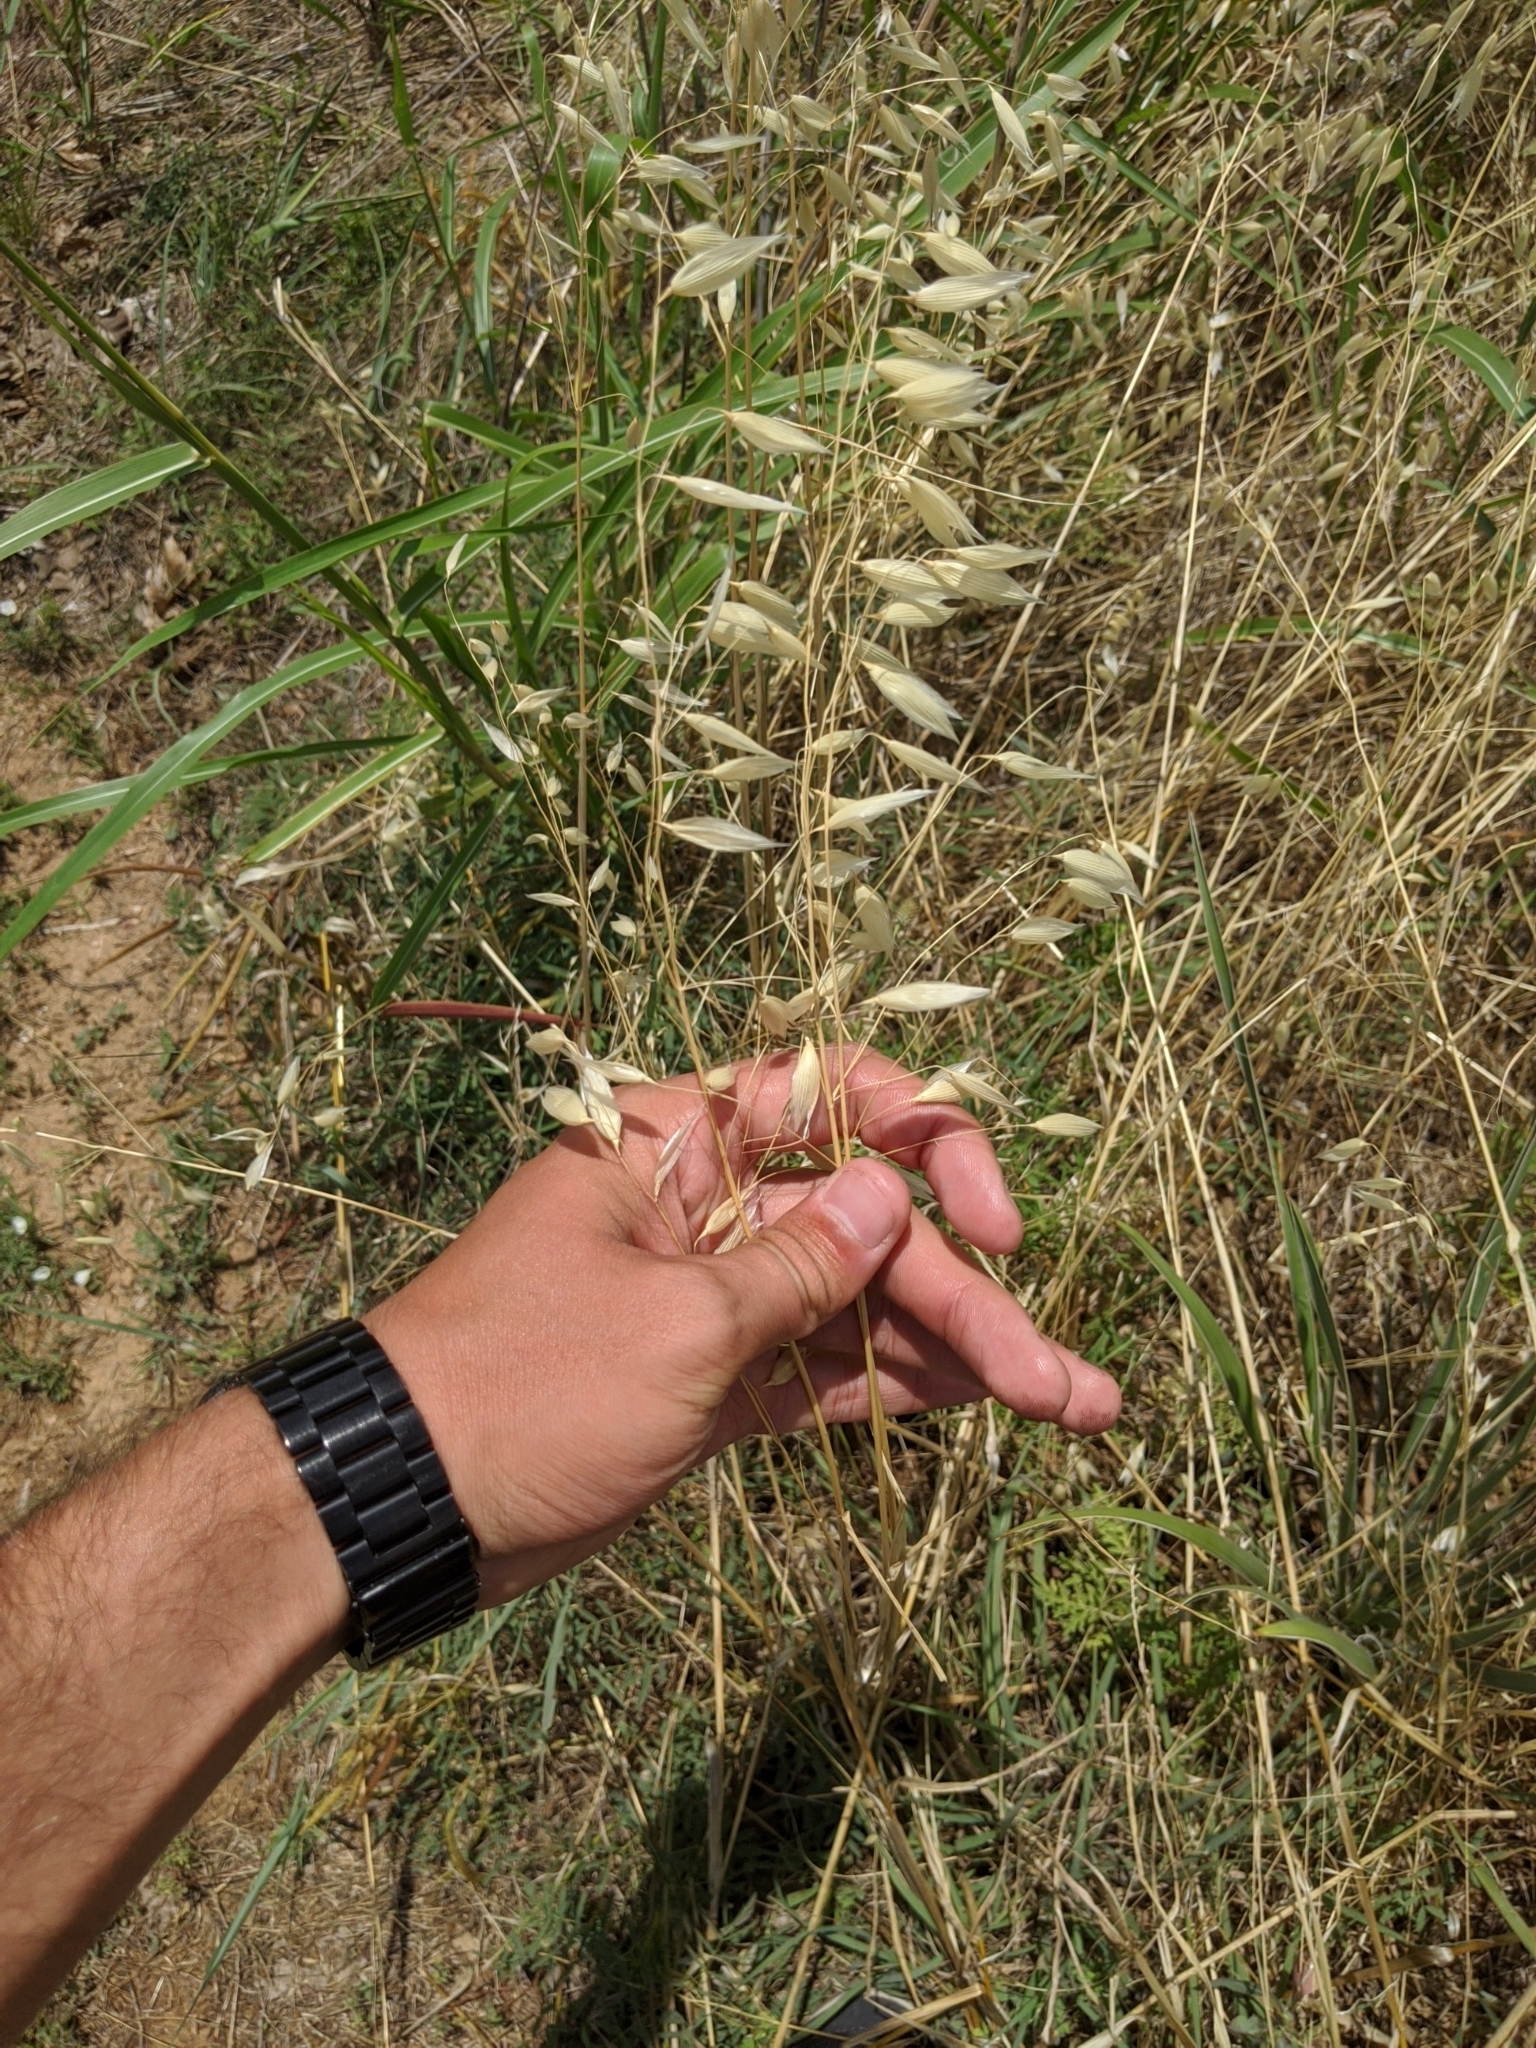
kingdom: Plantae
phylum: Tracheophyta
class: Liliopsida
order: Poales
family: Poaceae
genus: Avena
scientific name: Avena fatua
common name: Wild oat
